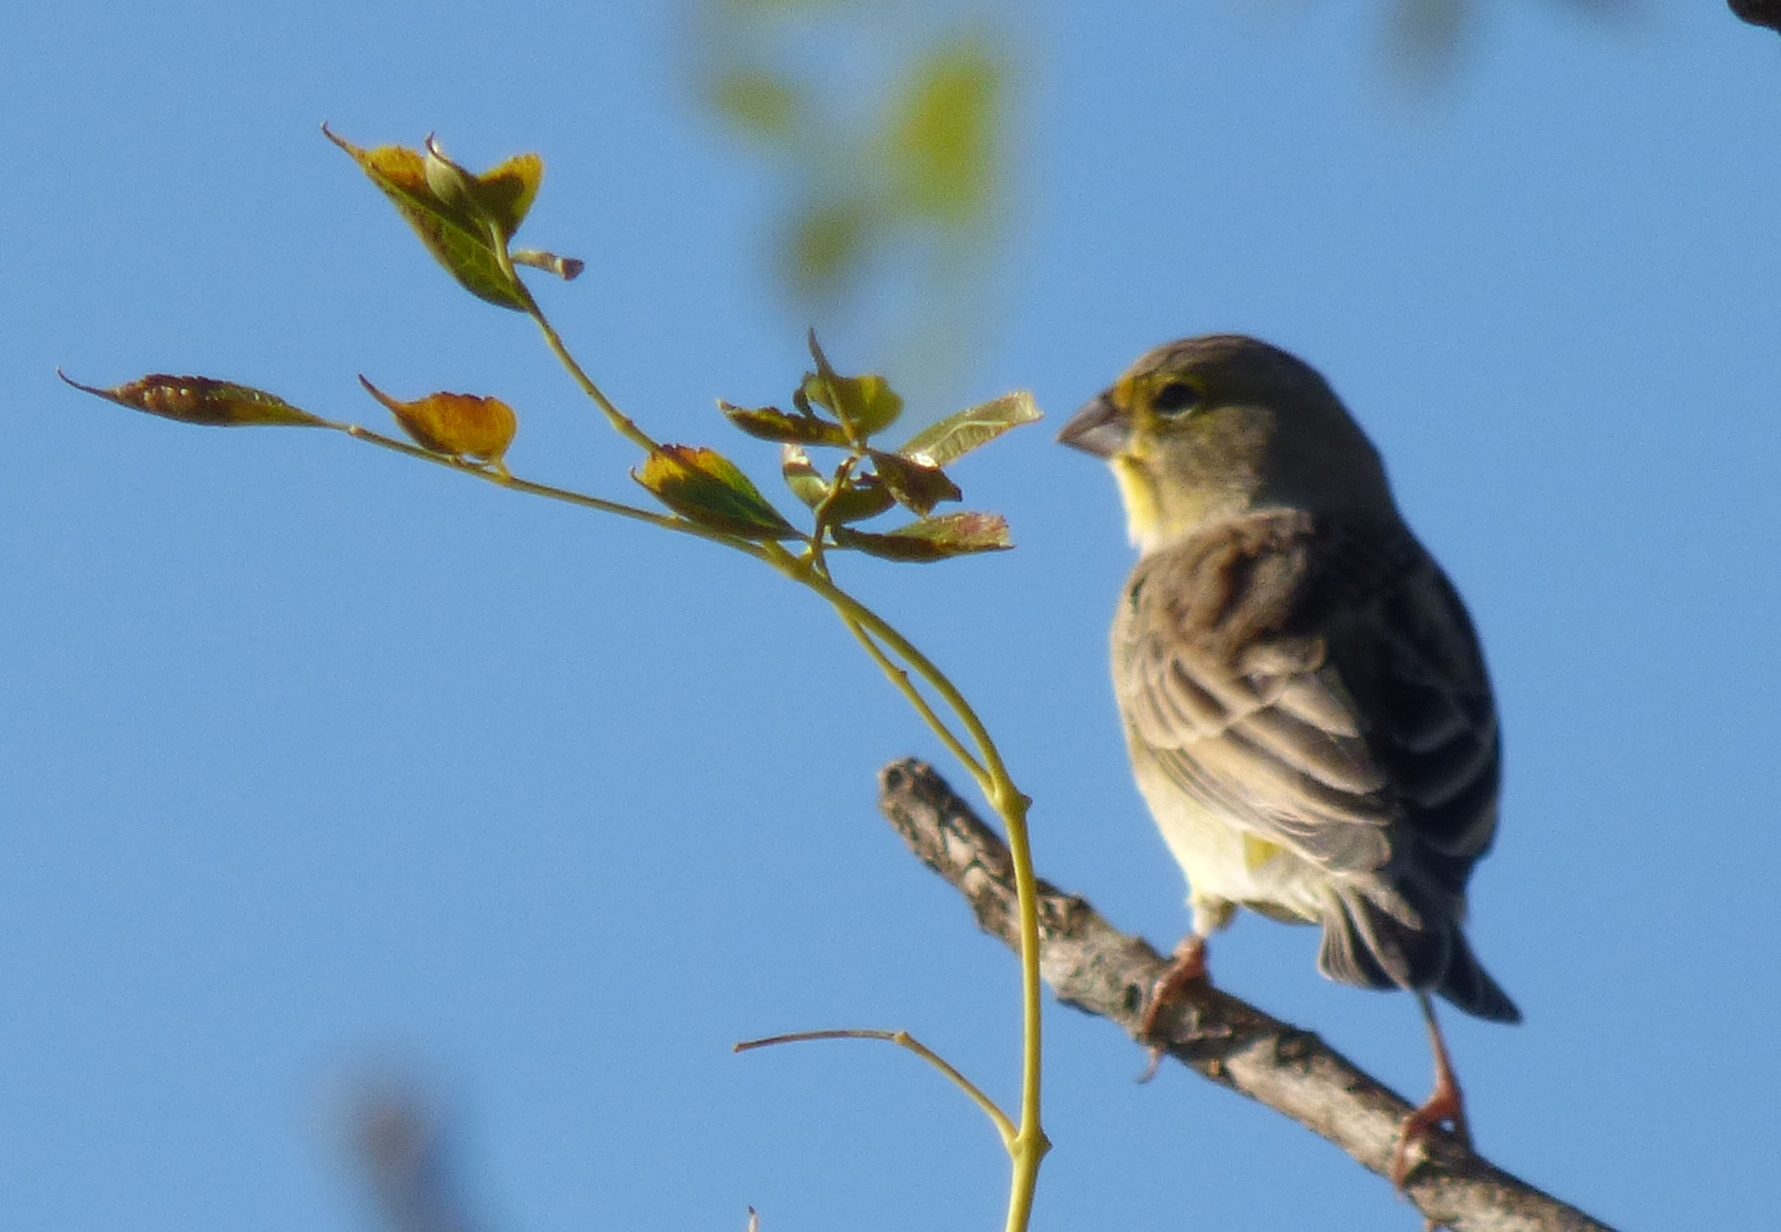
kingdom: Animalia
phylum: Chordata
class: Aves
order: Passeriformes
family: Thraupidae
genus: Sicalis
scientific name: Sicalis luteola
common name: Grassland yellow-finch
